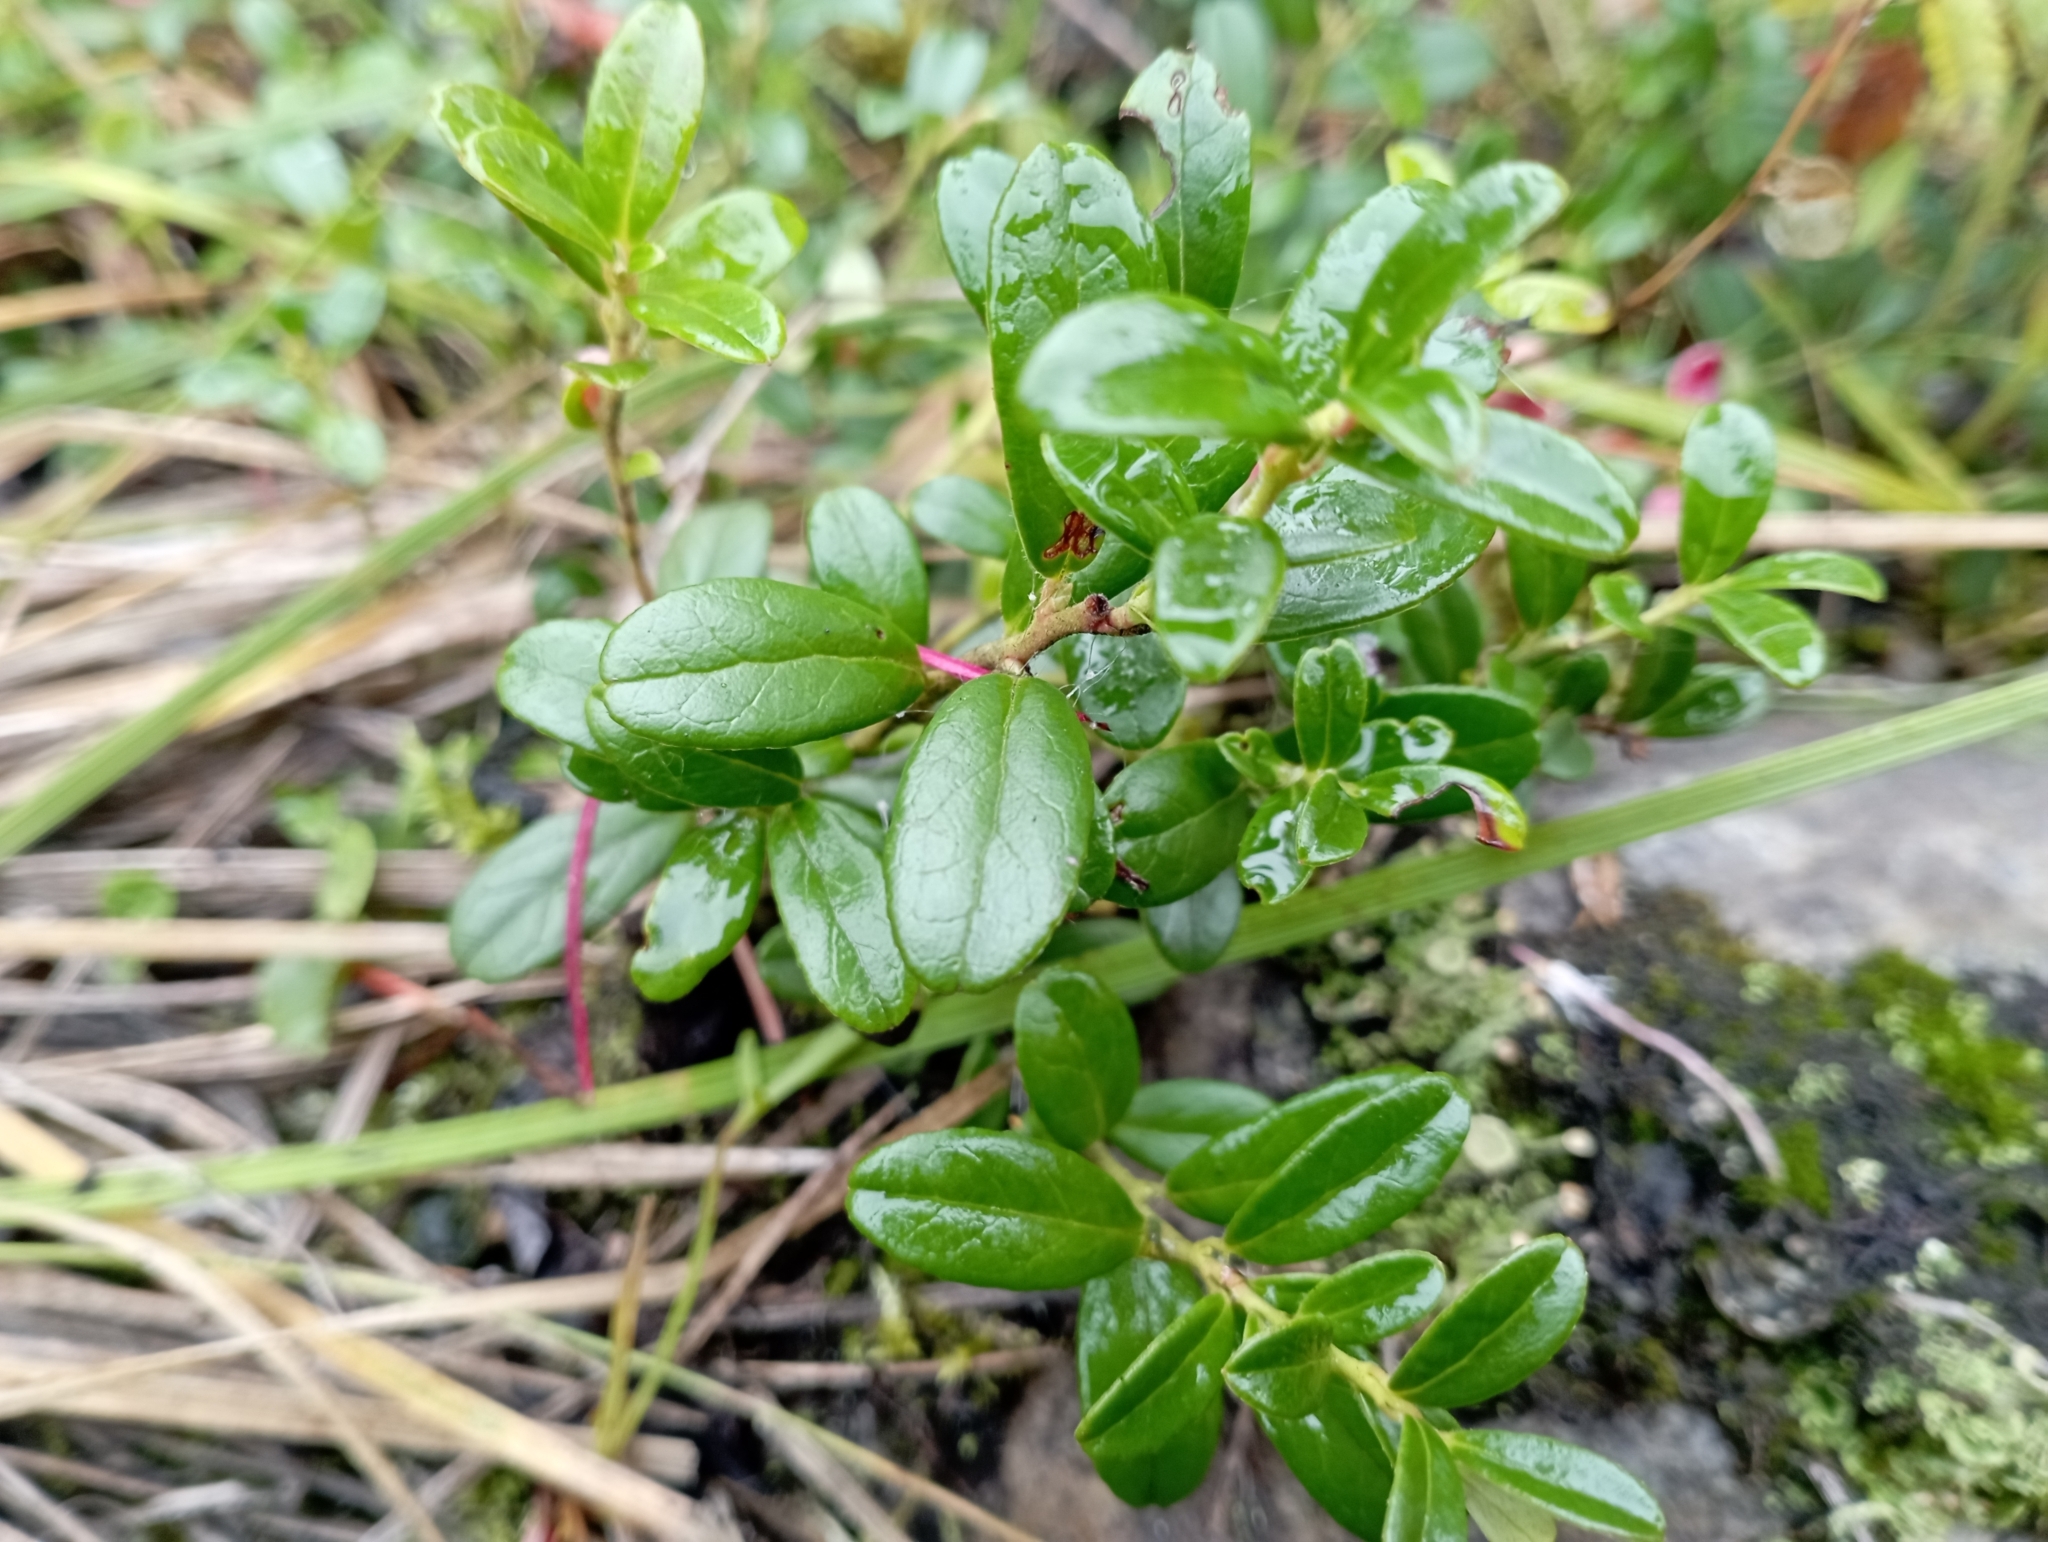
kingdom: Plantae
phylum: Tracheophyta
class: Magnoliopsida
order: Ericales
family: Ericaceae
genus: Vaccinium
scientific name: Vaccinium vitis-idaea
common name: Cowberry
